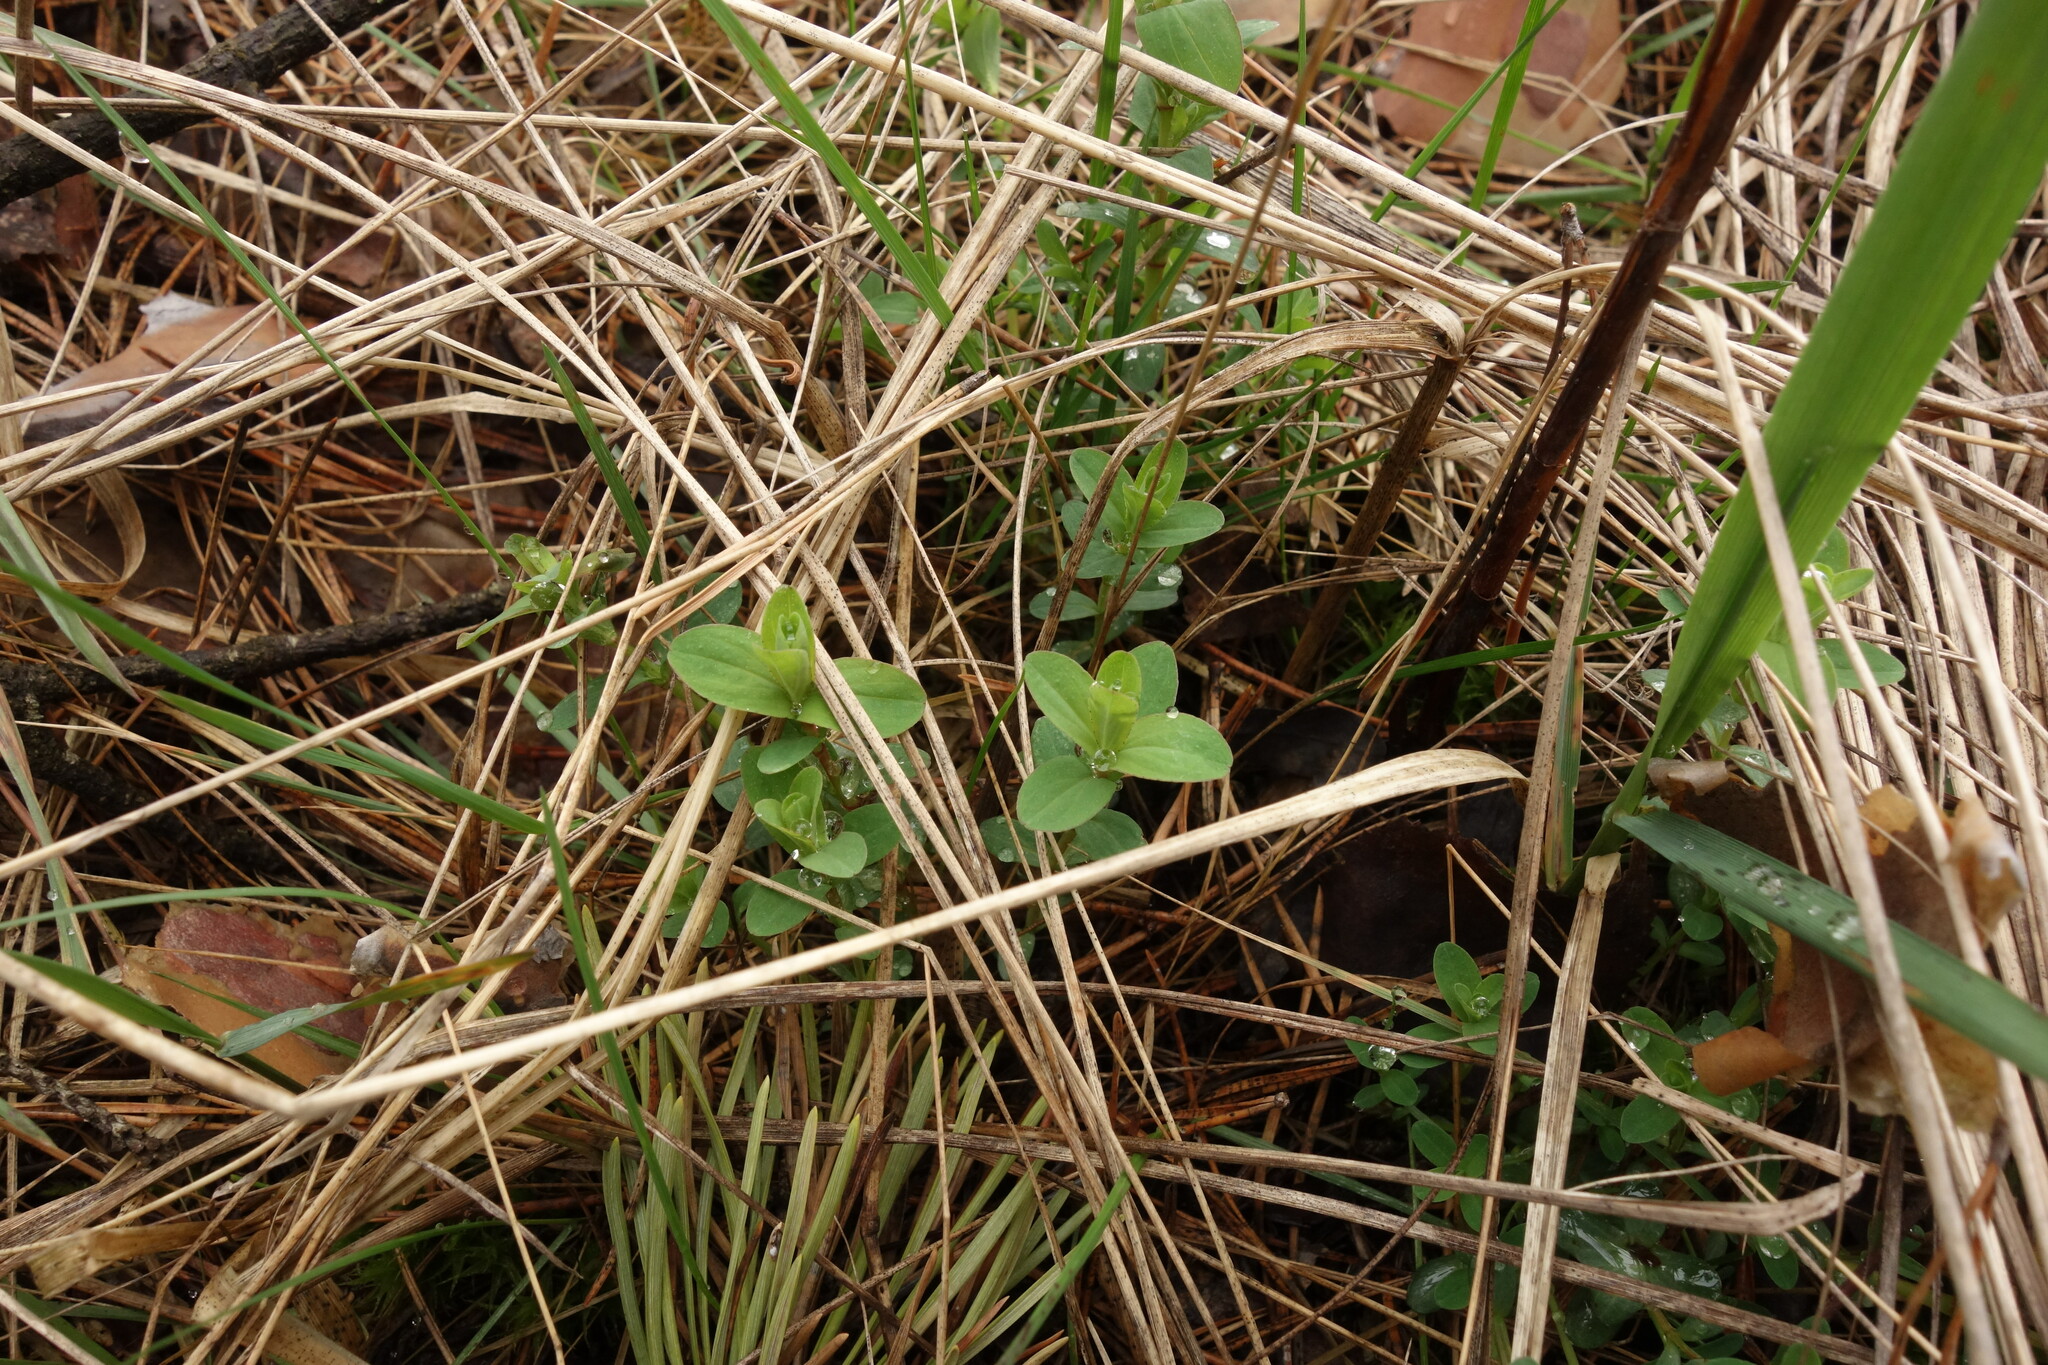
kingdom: Plantae
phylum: Tracheophyta
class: Magnoliopsida
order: Malpighiales
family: Hypericaceae
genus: Hypericum
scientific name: Hypericum perforatum
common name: Common st. johnswort
